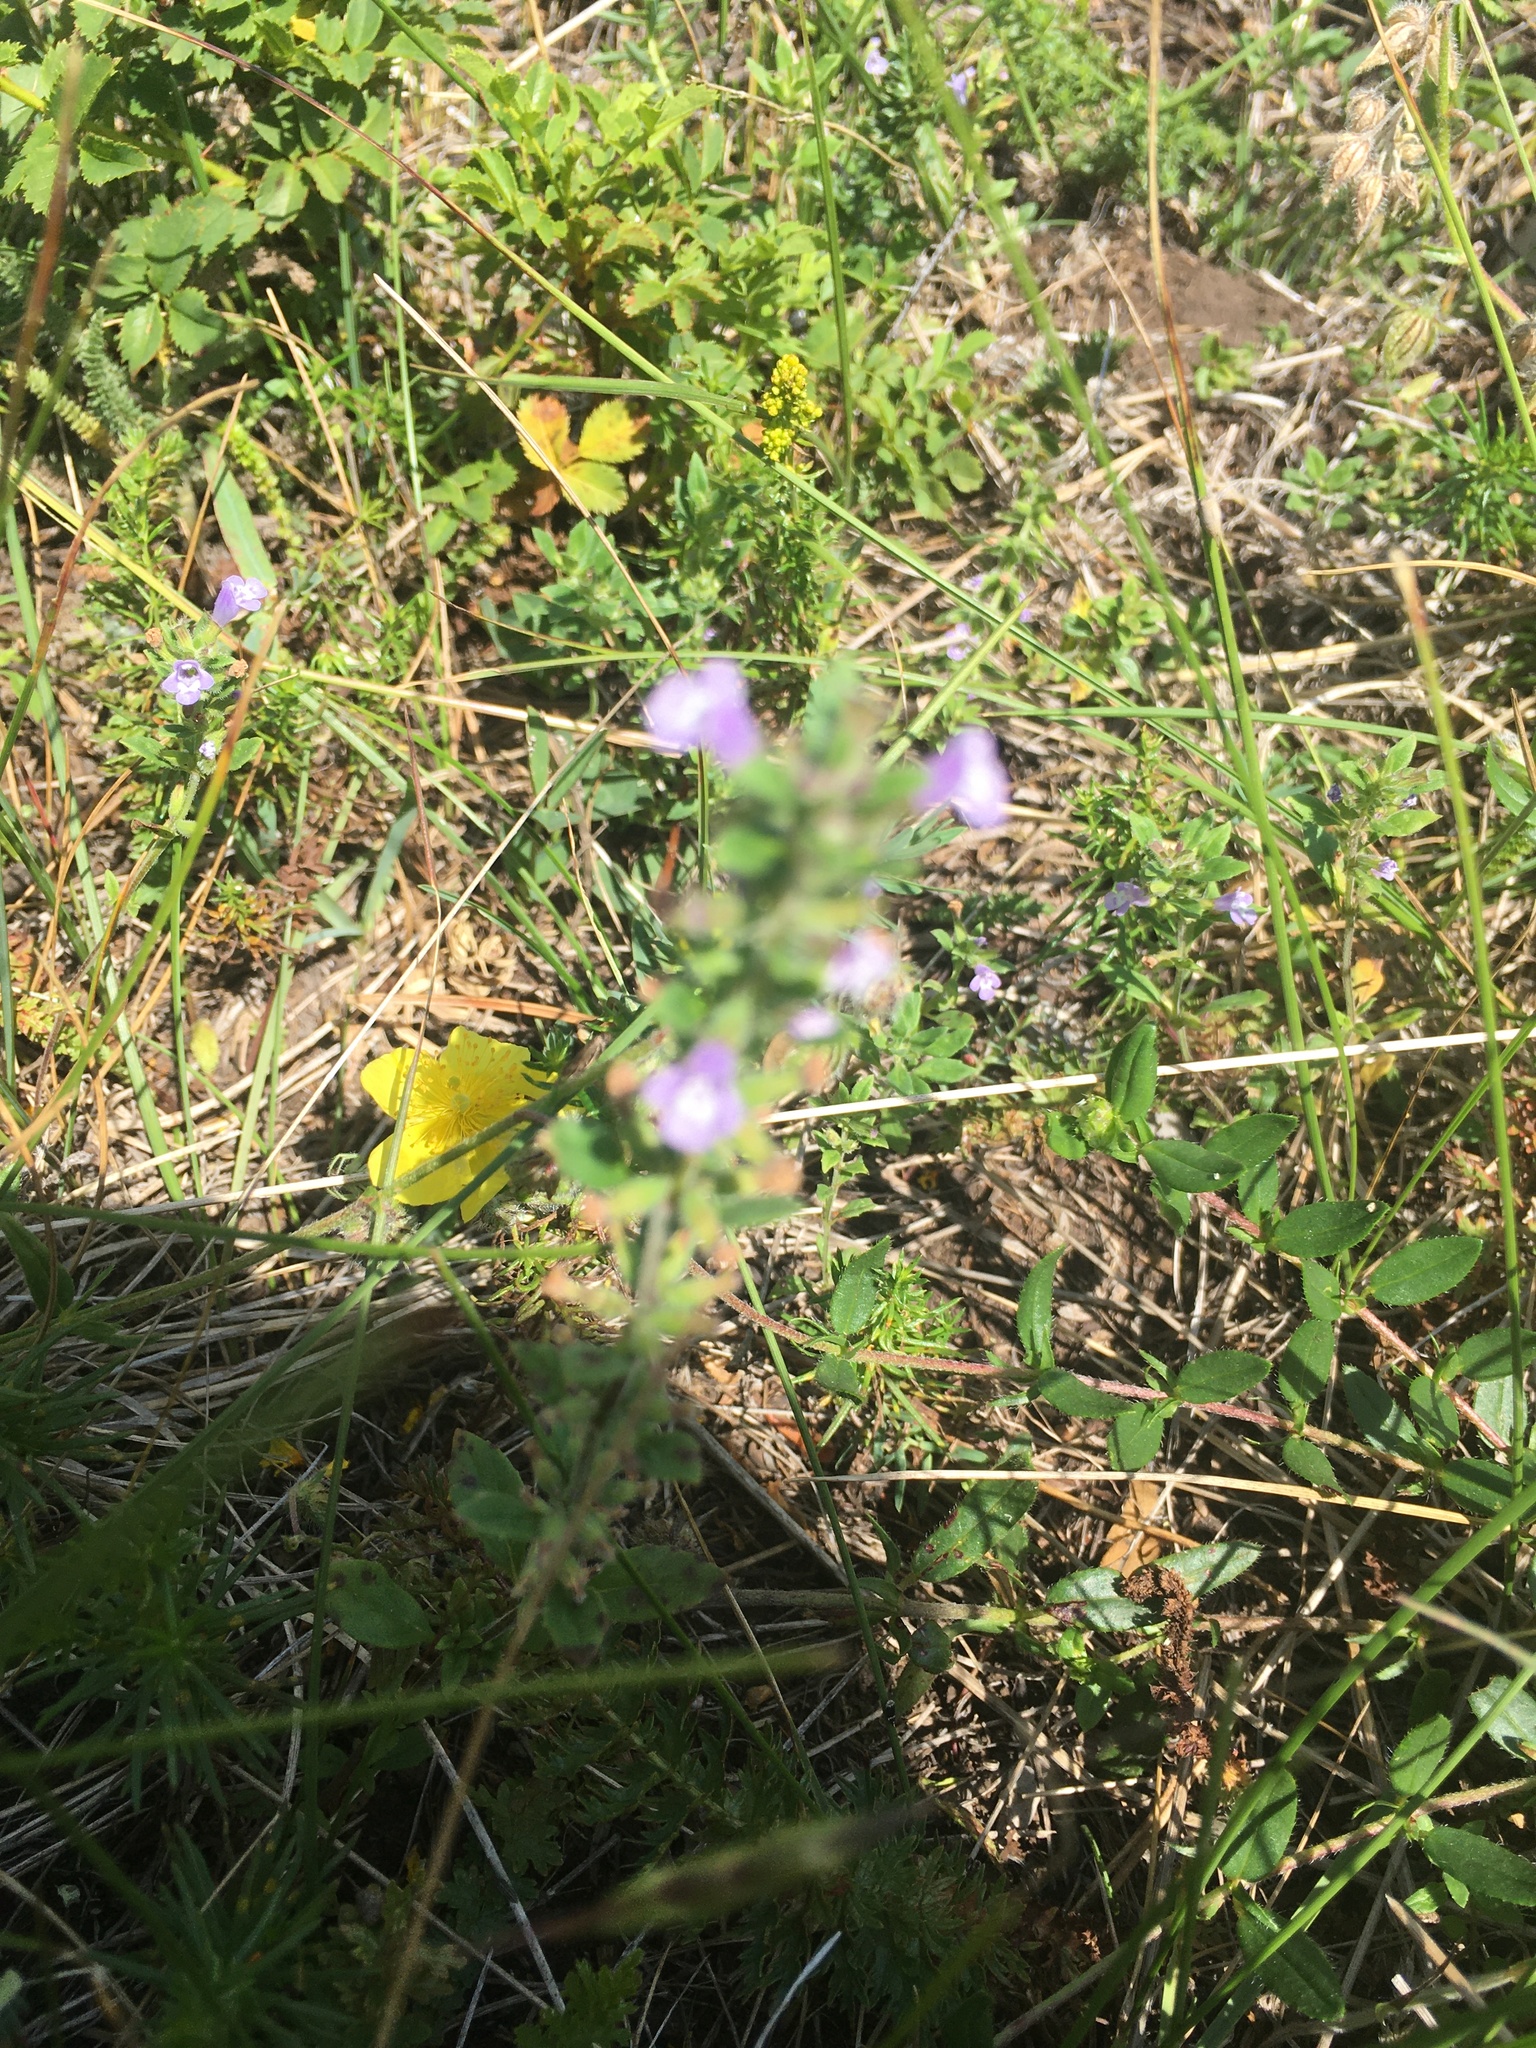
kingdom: Plantae
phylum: Tracheophyta
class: Magnoliopsida
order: Lamiales
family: Lamiaceae
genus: Clinopodium
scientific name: Clinopodium acinos
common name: Basil thyme
